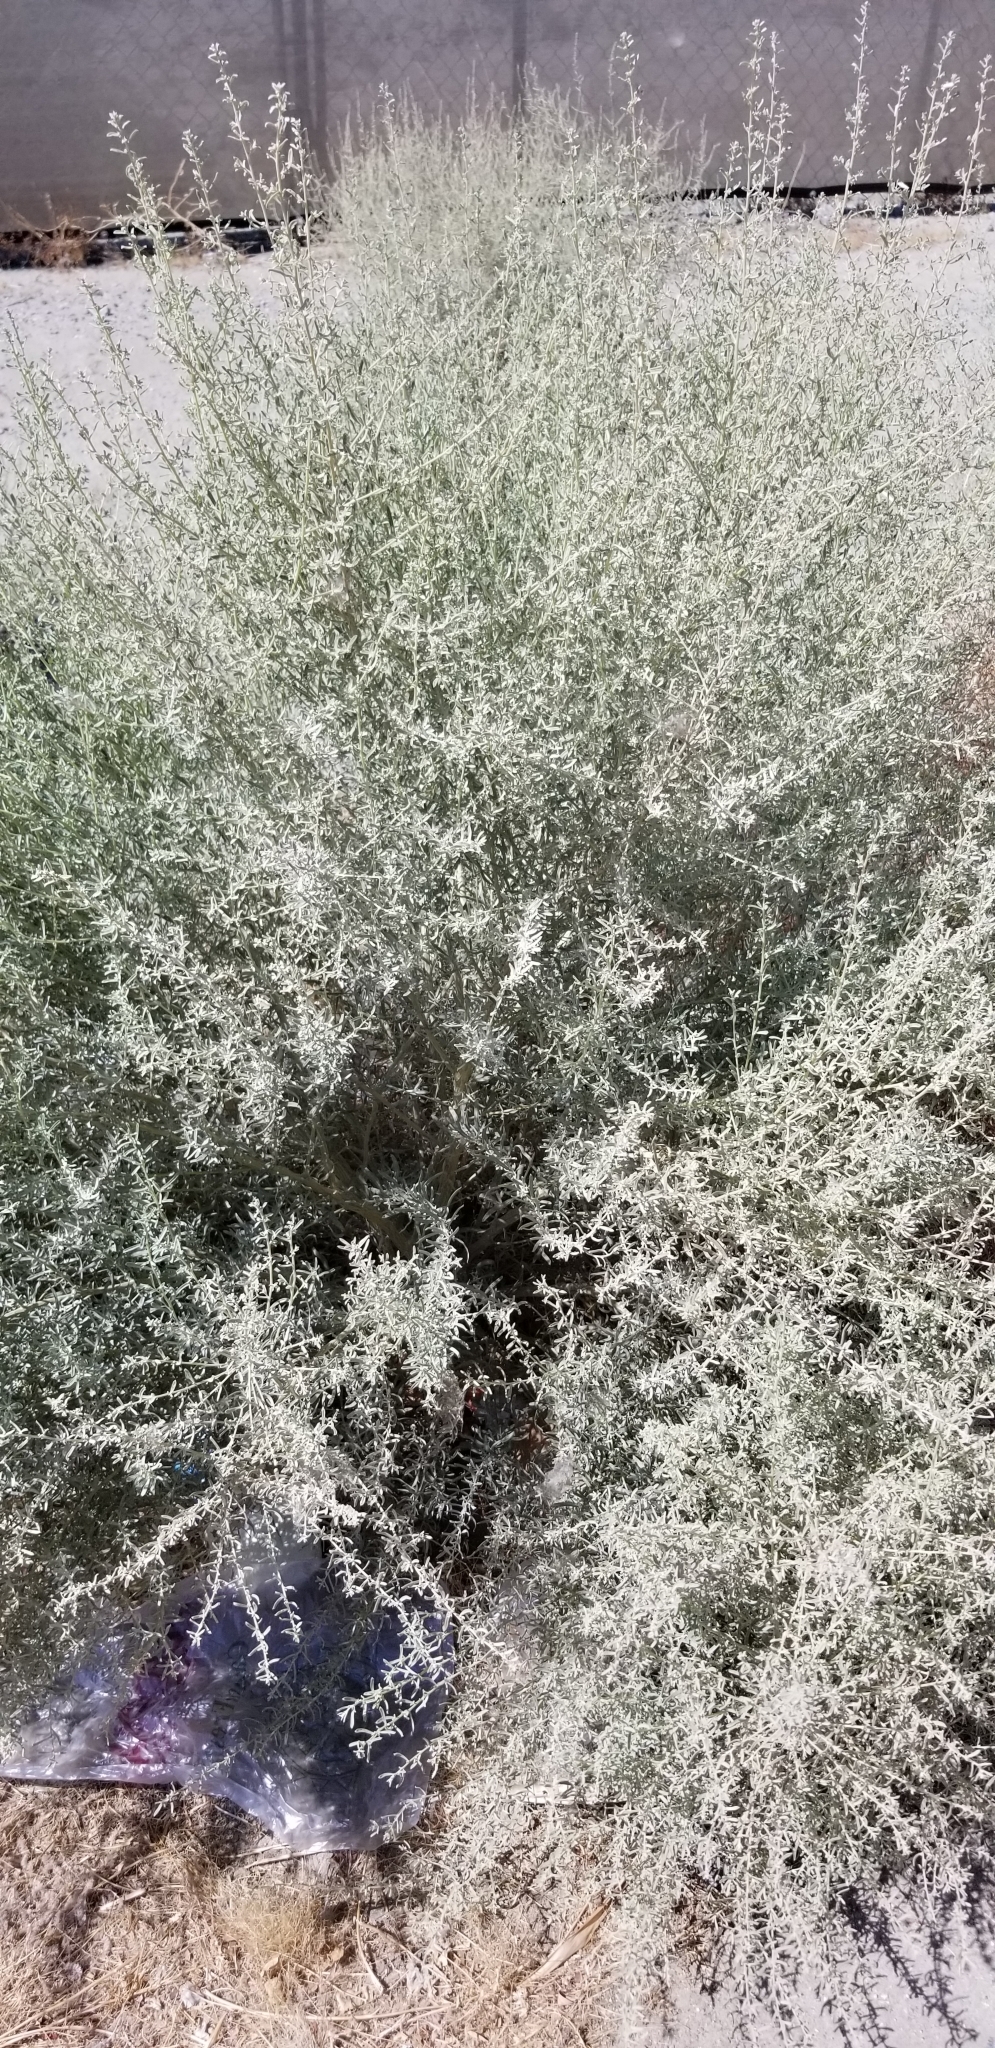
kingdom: Plantae
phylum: Tracheophyta
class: Magnoliopsida
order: Caryophyllales
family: Amaranthaceae
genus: Atriplex
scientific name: Atriplex canescens
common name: Four-wing saltbush
